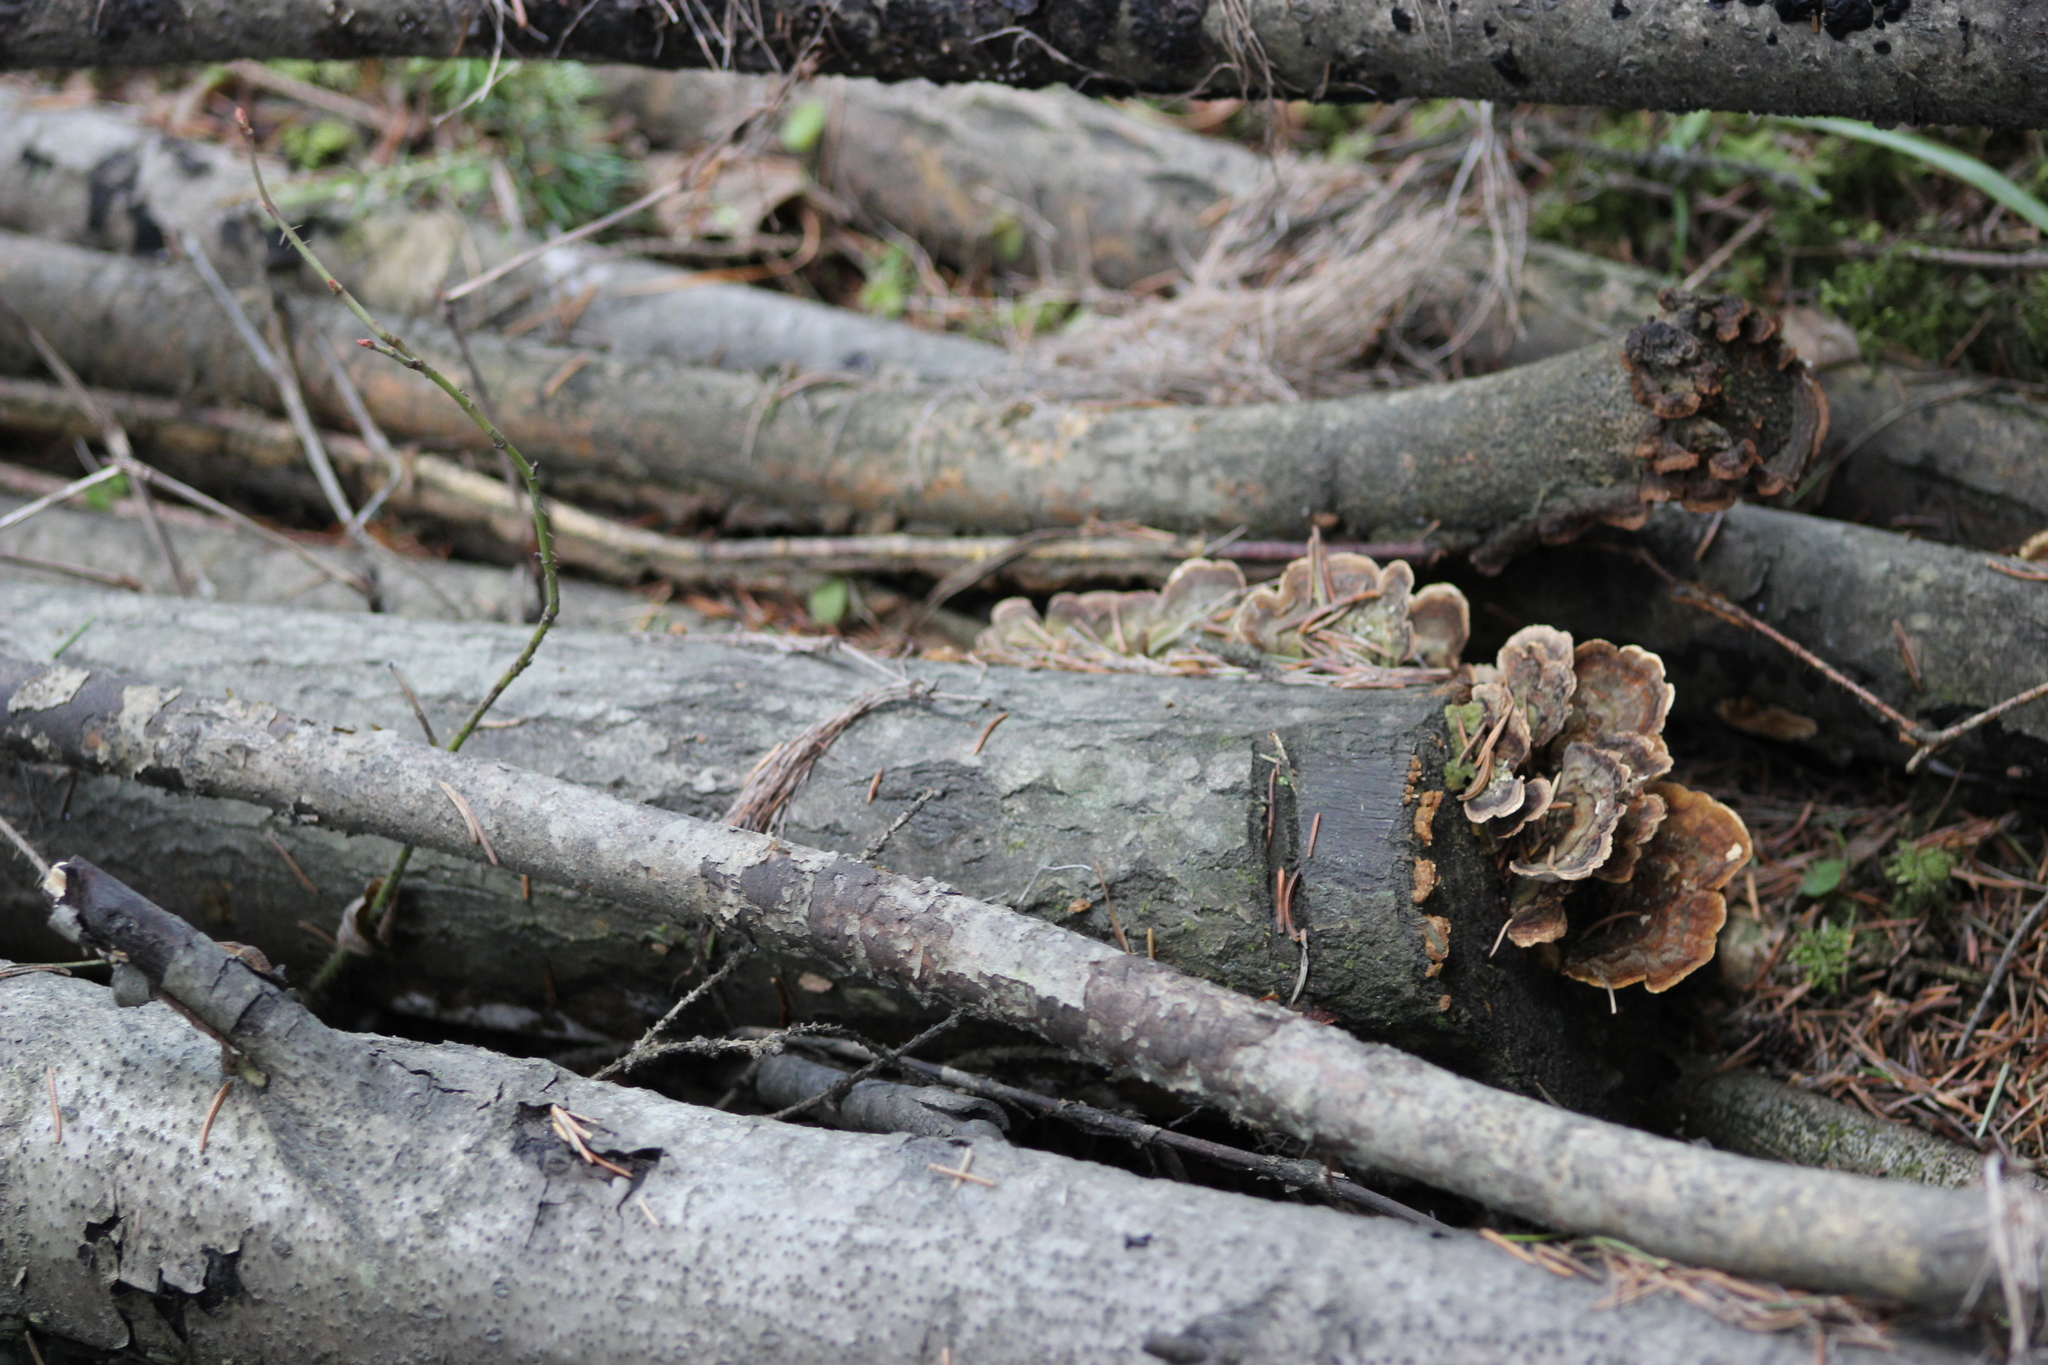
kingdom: Fungi
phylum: Basidiomycota
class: Agaricomycetes
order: Polyporales
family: Polyporaceae
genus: Trametes
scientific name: Trametes versicolor
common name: Turkeytail
